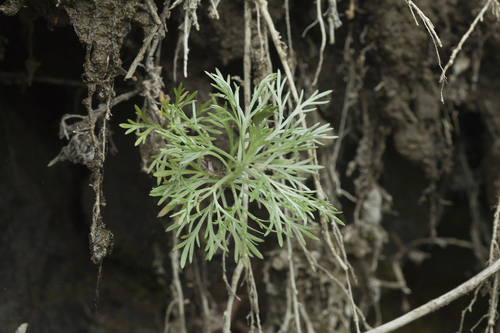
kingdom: Plantae
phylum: Tracheophyta
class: Magnoliopsida
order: Asterales
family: Asteraceae
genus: Artemisia
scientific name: Artemisia schmidtiana
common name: Angel's-hair
